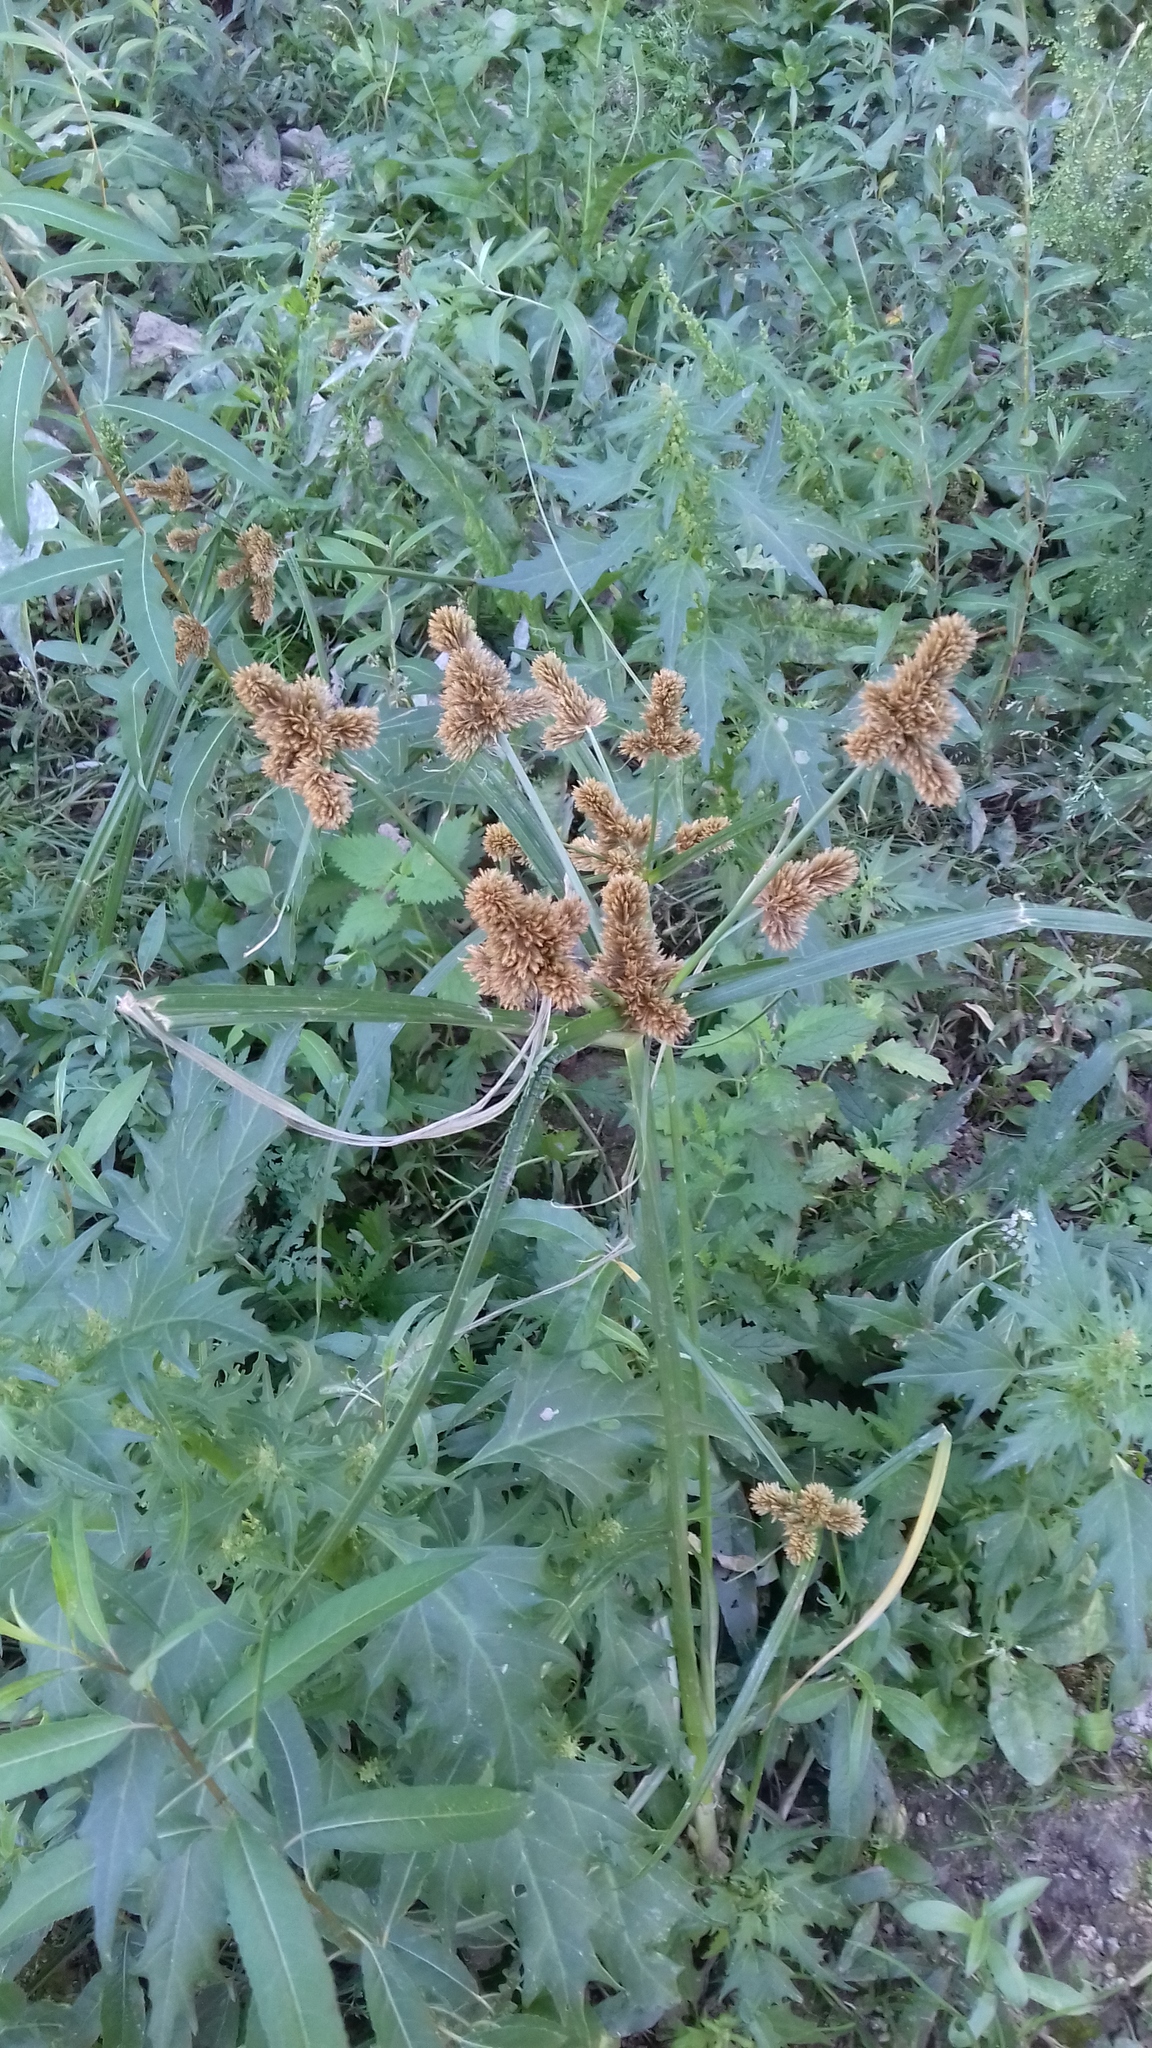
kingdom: Plantae
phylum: Tracheophyta
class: Liliopsida
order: Poales
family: Cyperaceae
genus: Cyperus
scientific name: Cyperus glomeratus
